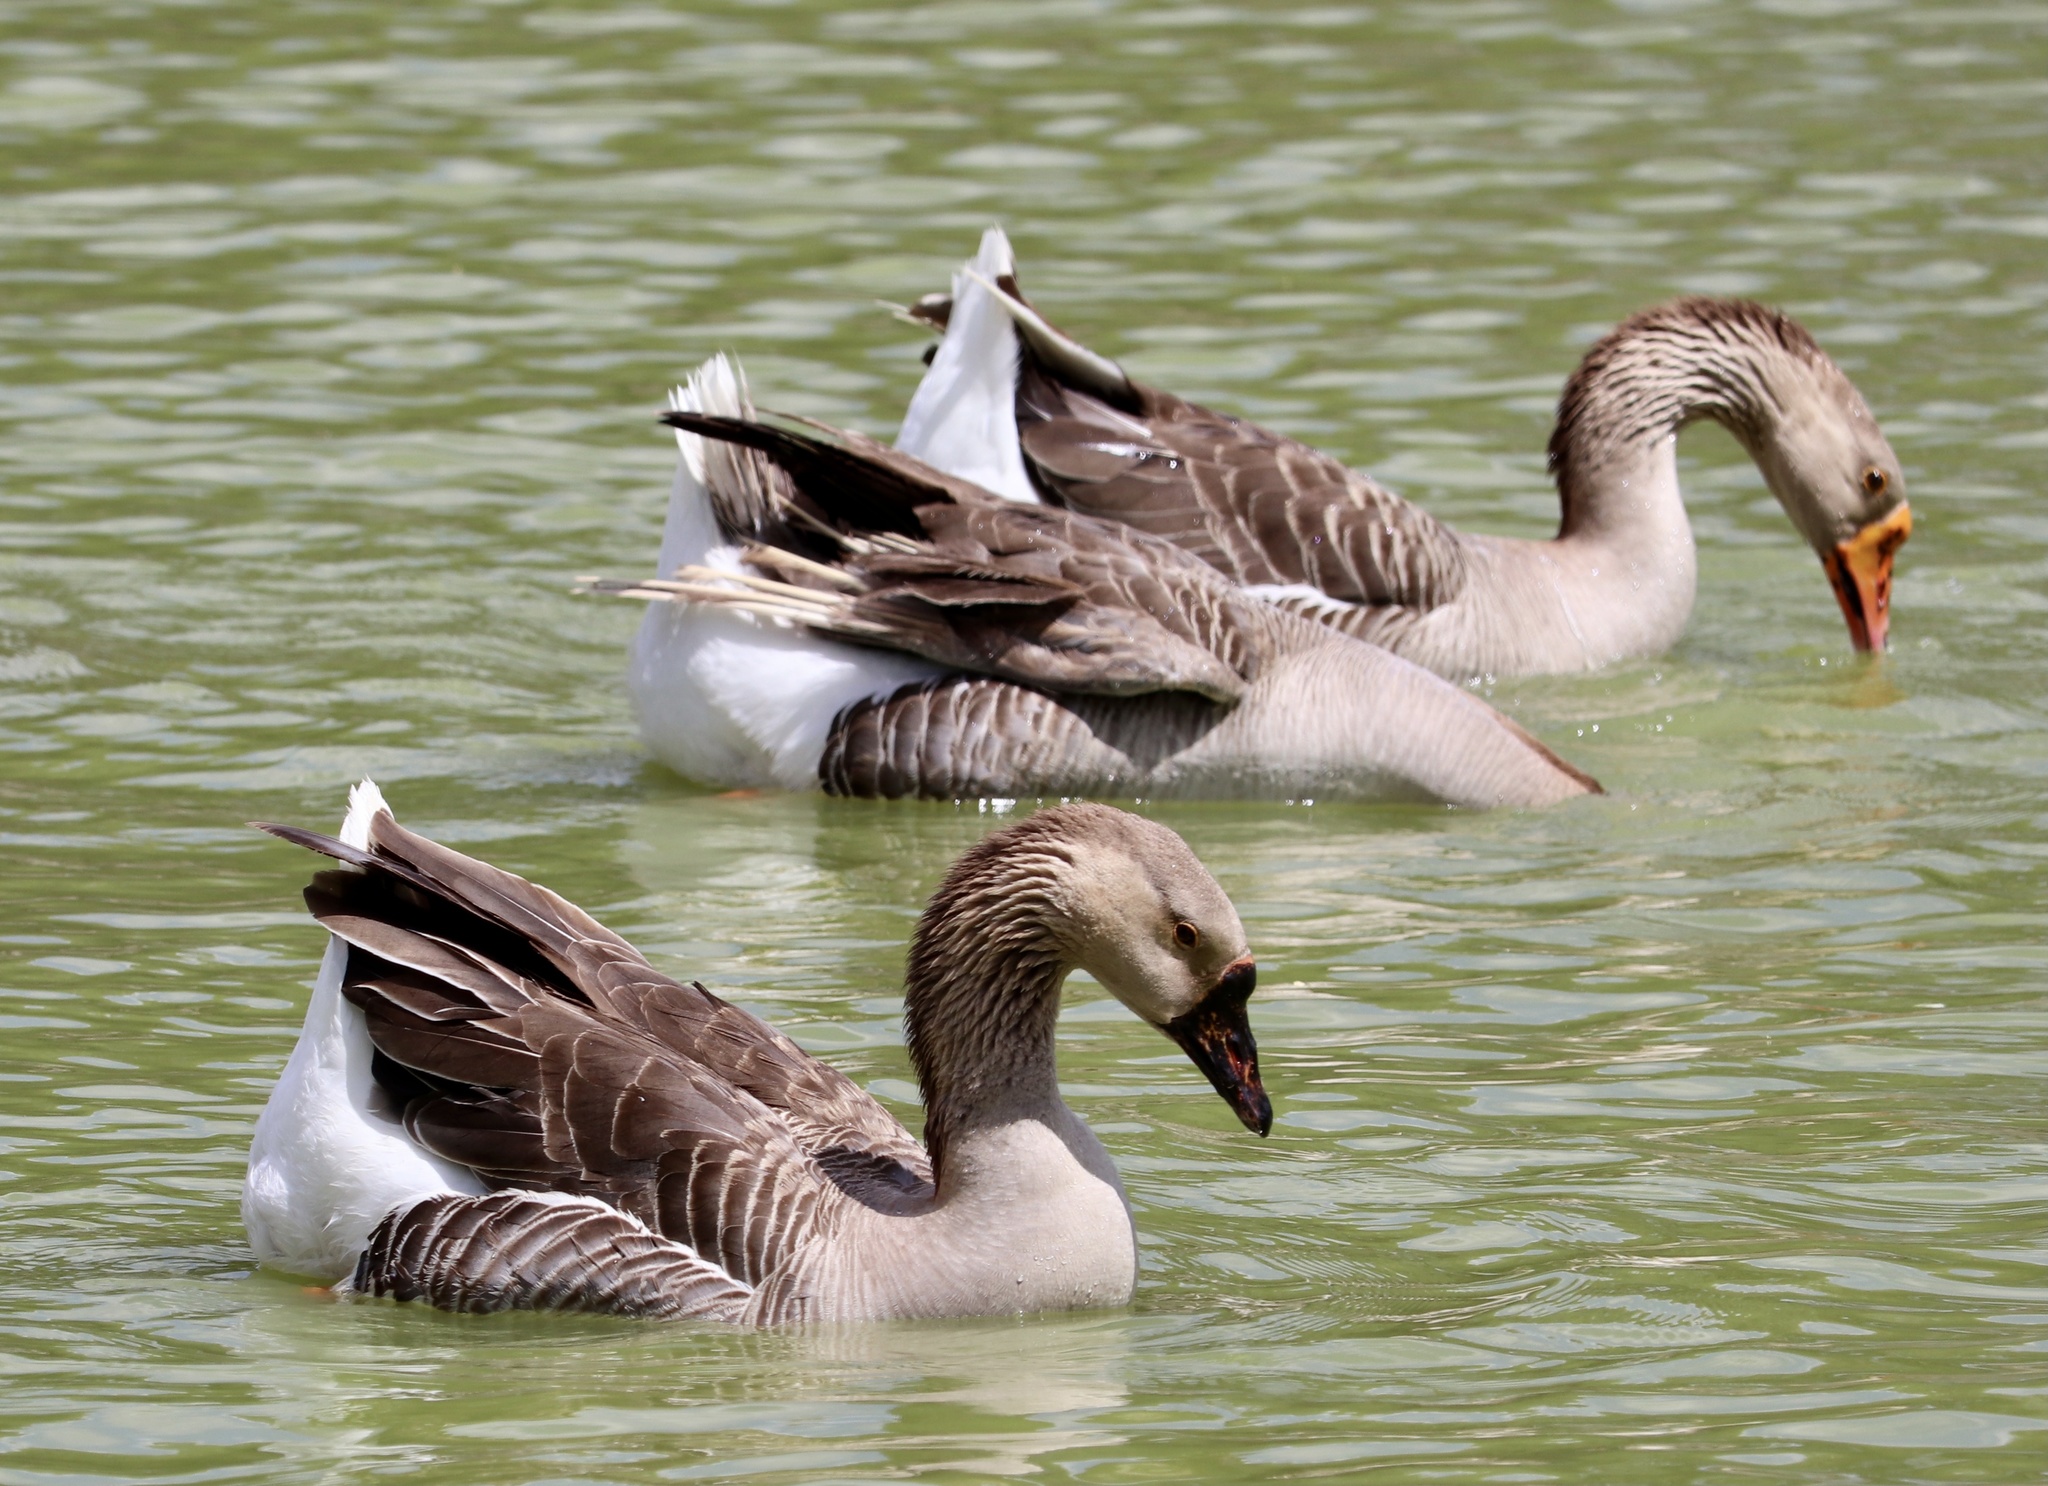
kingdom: Animalia
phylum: Chordata
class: Aves
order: Anseriformes
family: Anatidae
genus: Anser
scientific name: Anser
